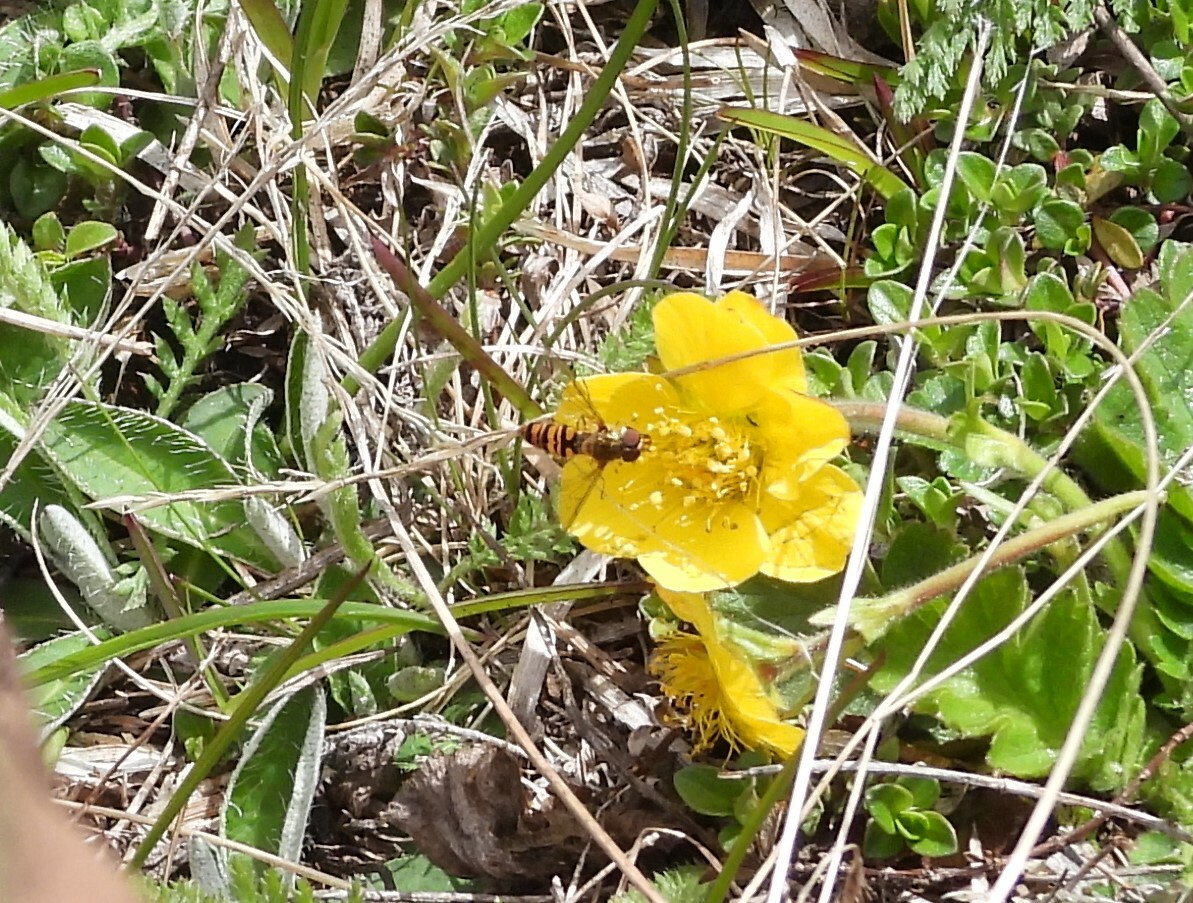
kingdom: Animalia
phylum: Arthropoda
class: Insecta
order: Diptera
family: Syrphidae
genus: Episyrphus
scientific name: Episyrphus balteatus
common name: Marmalade hoverfly
